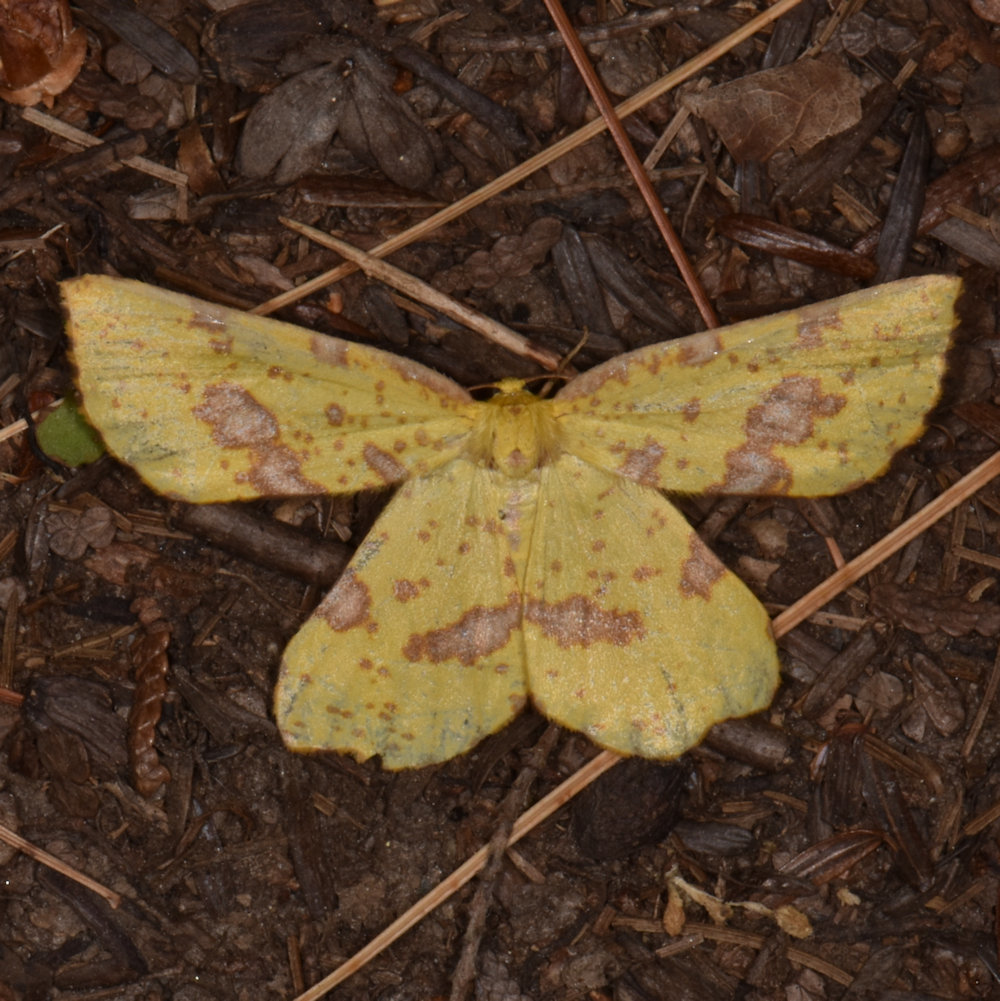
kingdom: Animalia
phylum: Arthropoda
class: Insecta
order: Lepidoptera
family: Geometridae
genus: Xanthotype
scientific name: Xanthotype
